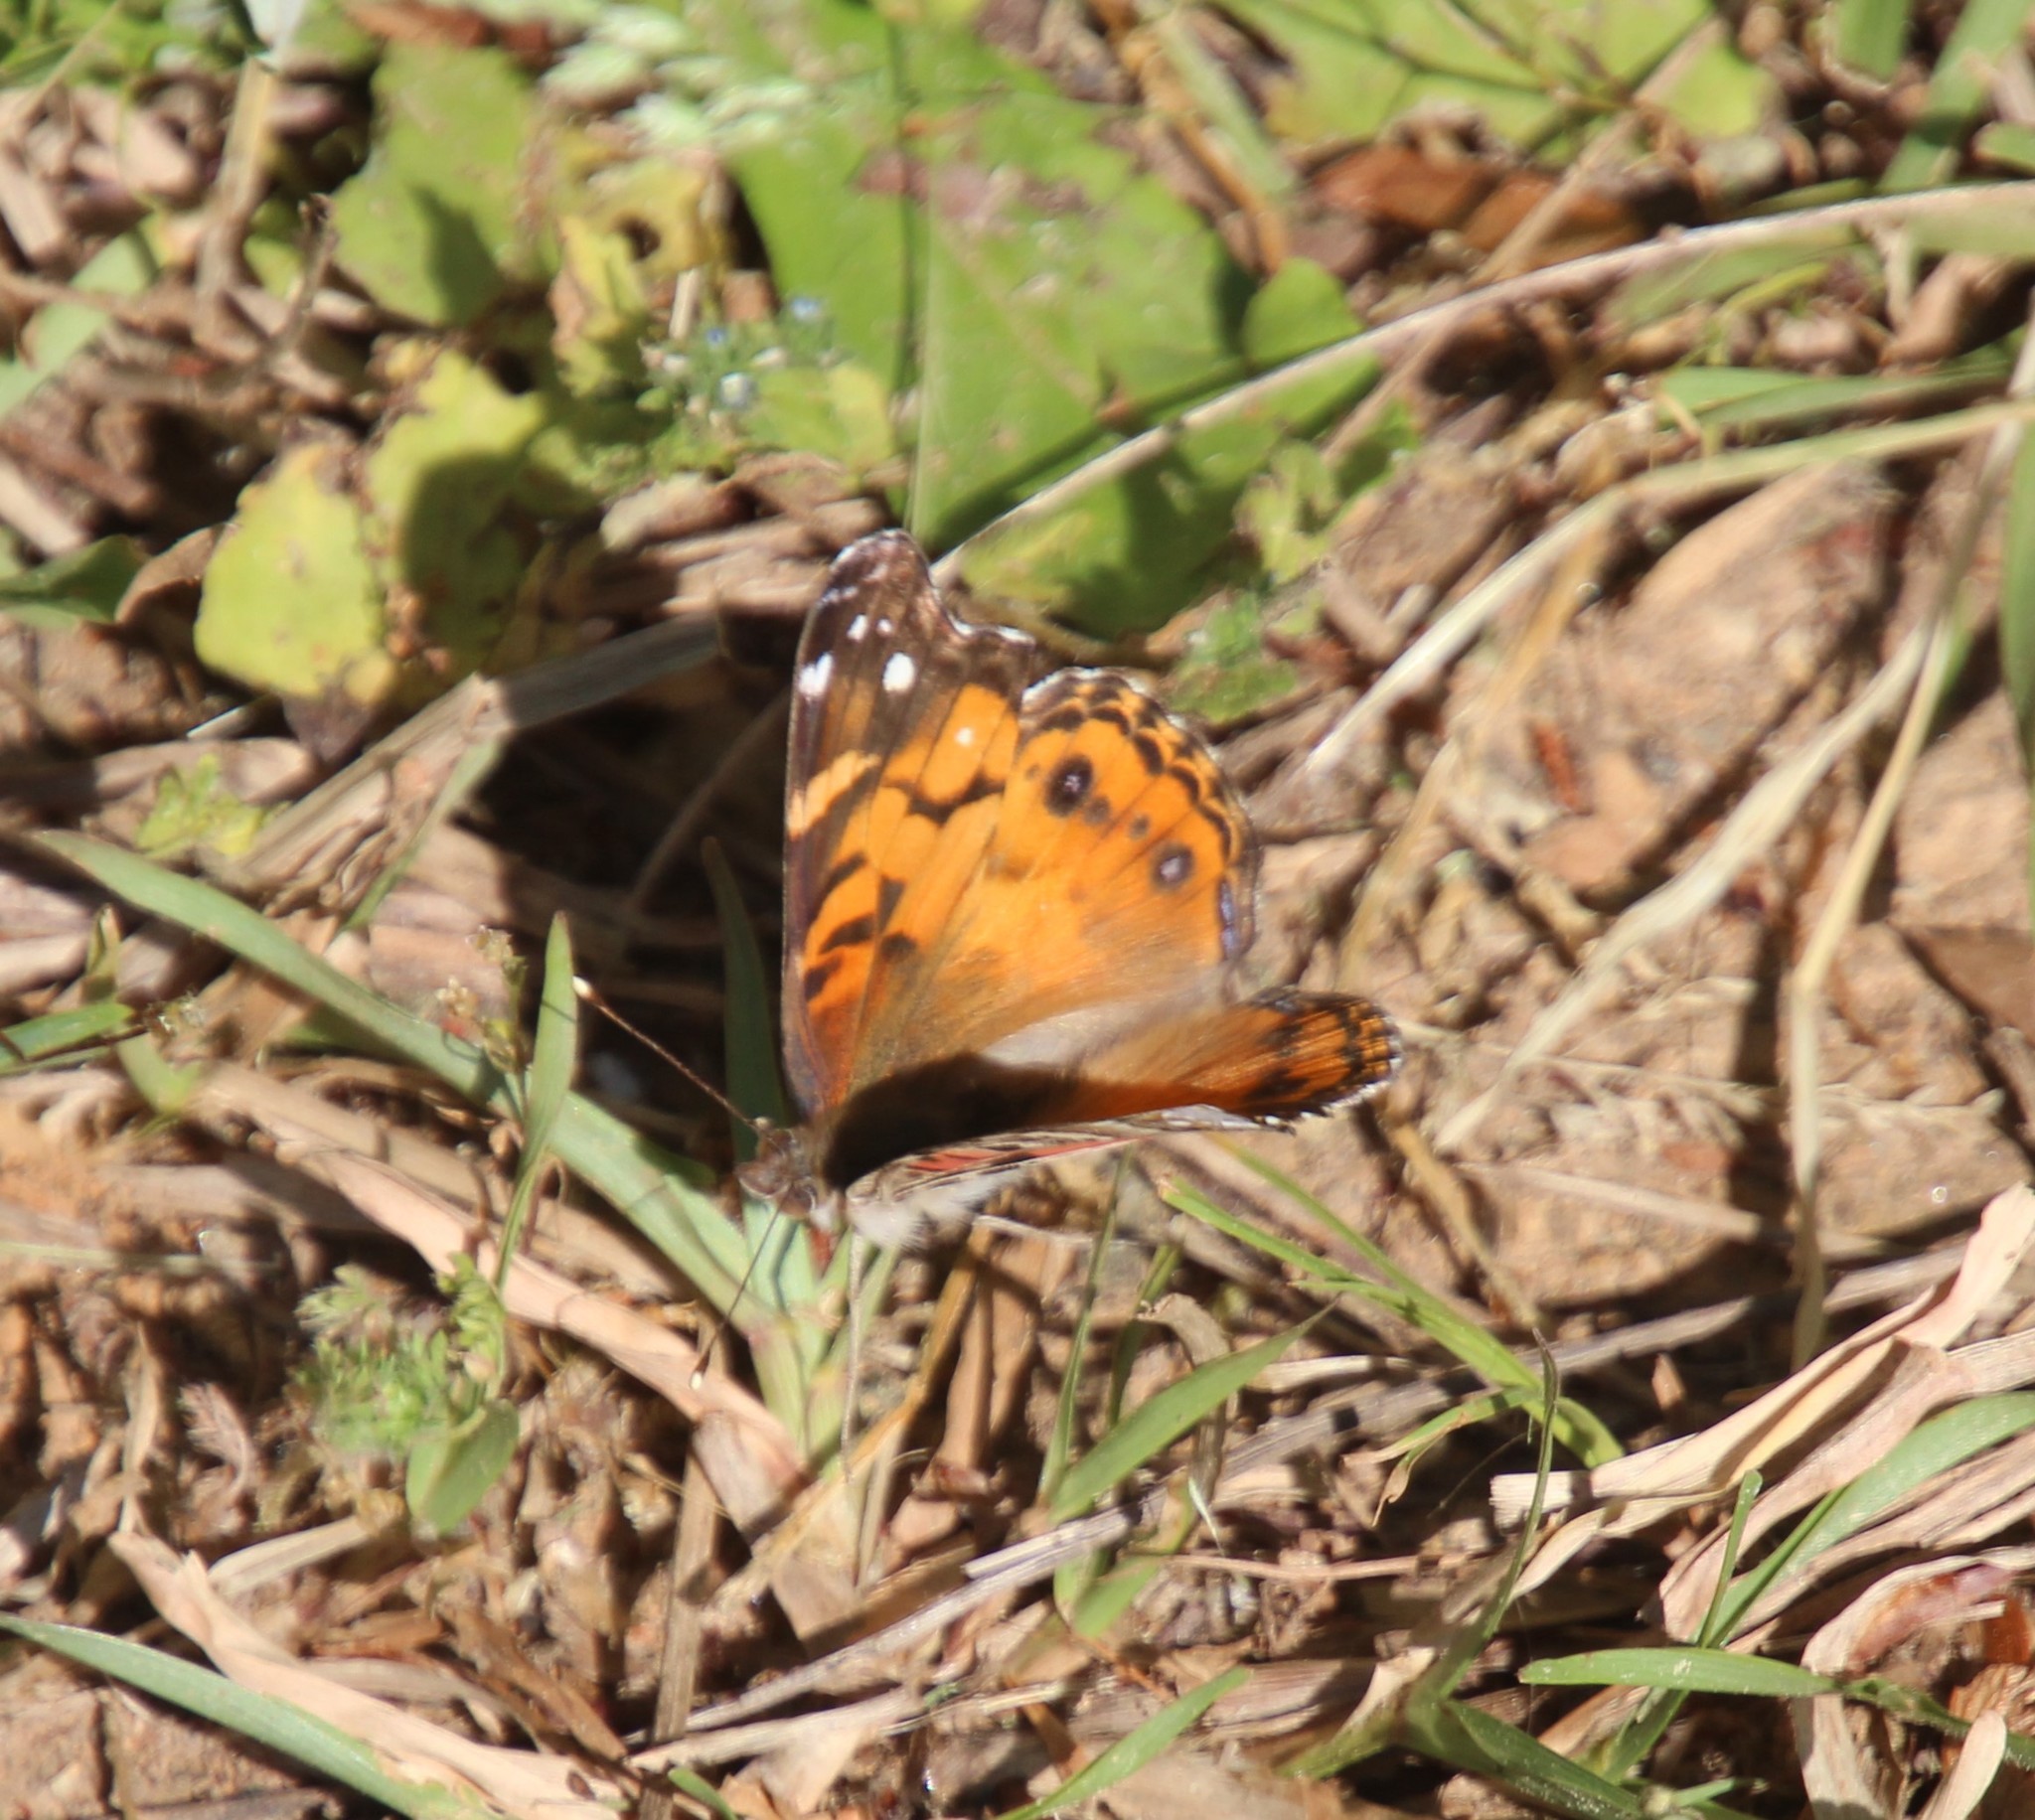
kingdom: Animalia
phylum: Arthropoda
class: Insecta
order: Lepidoptera
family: Nymphalidae
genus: Vanessa
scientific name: Vanessa virginiensis
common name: American lady
